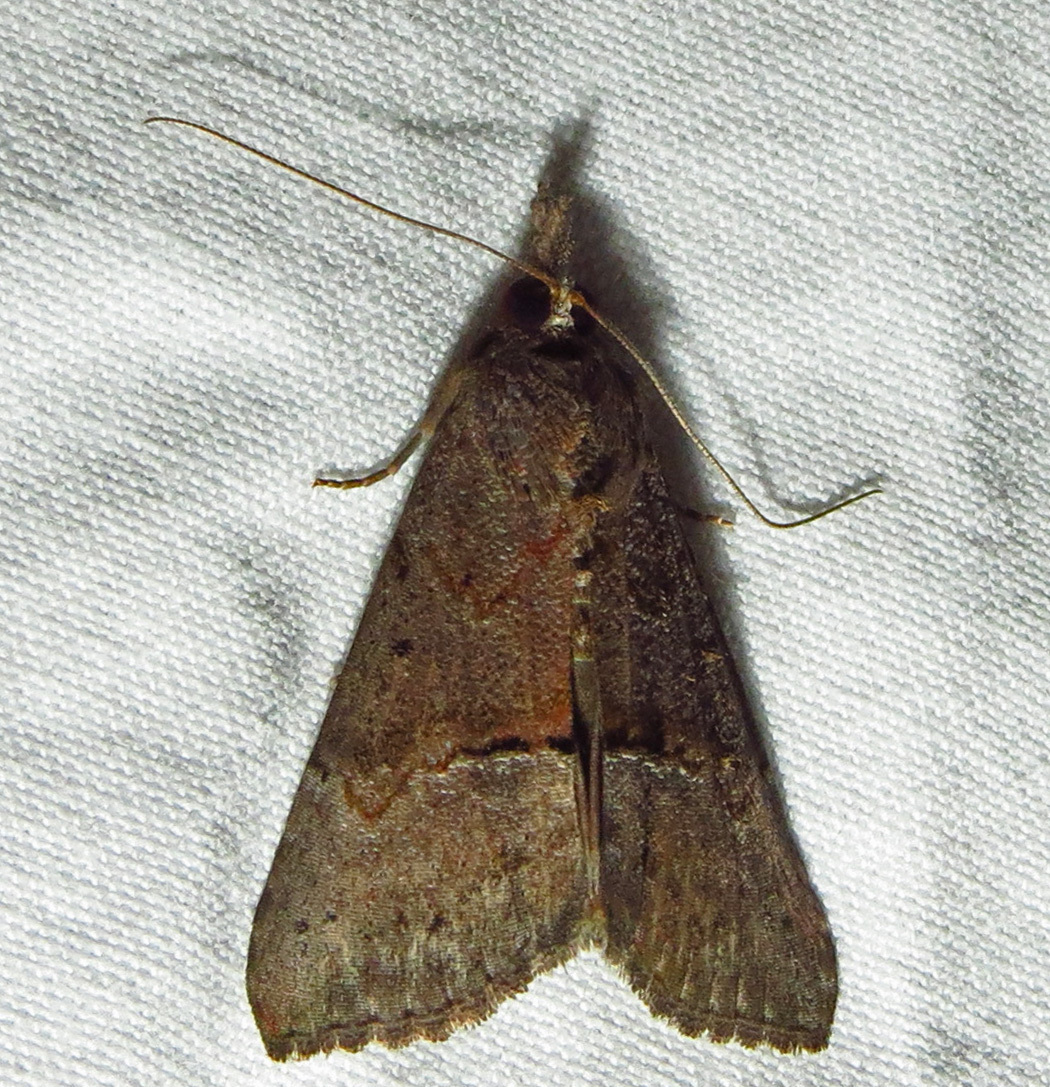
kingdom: Animalia
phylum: Arthropoda
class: Insecta
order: Lepidoptera
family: Erebidae
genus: Hypena
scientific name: Hypena scabra
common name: Green cloverworm
